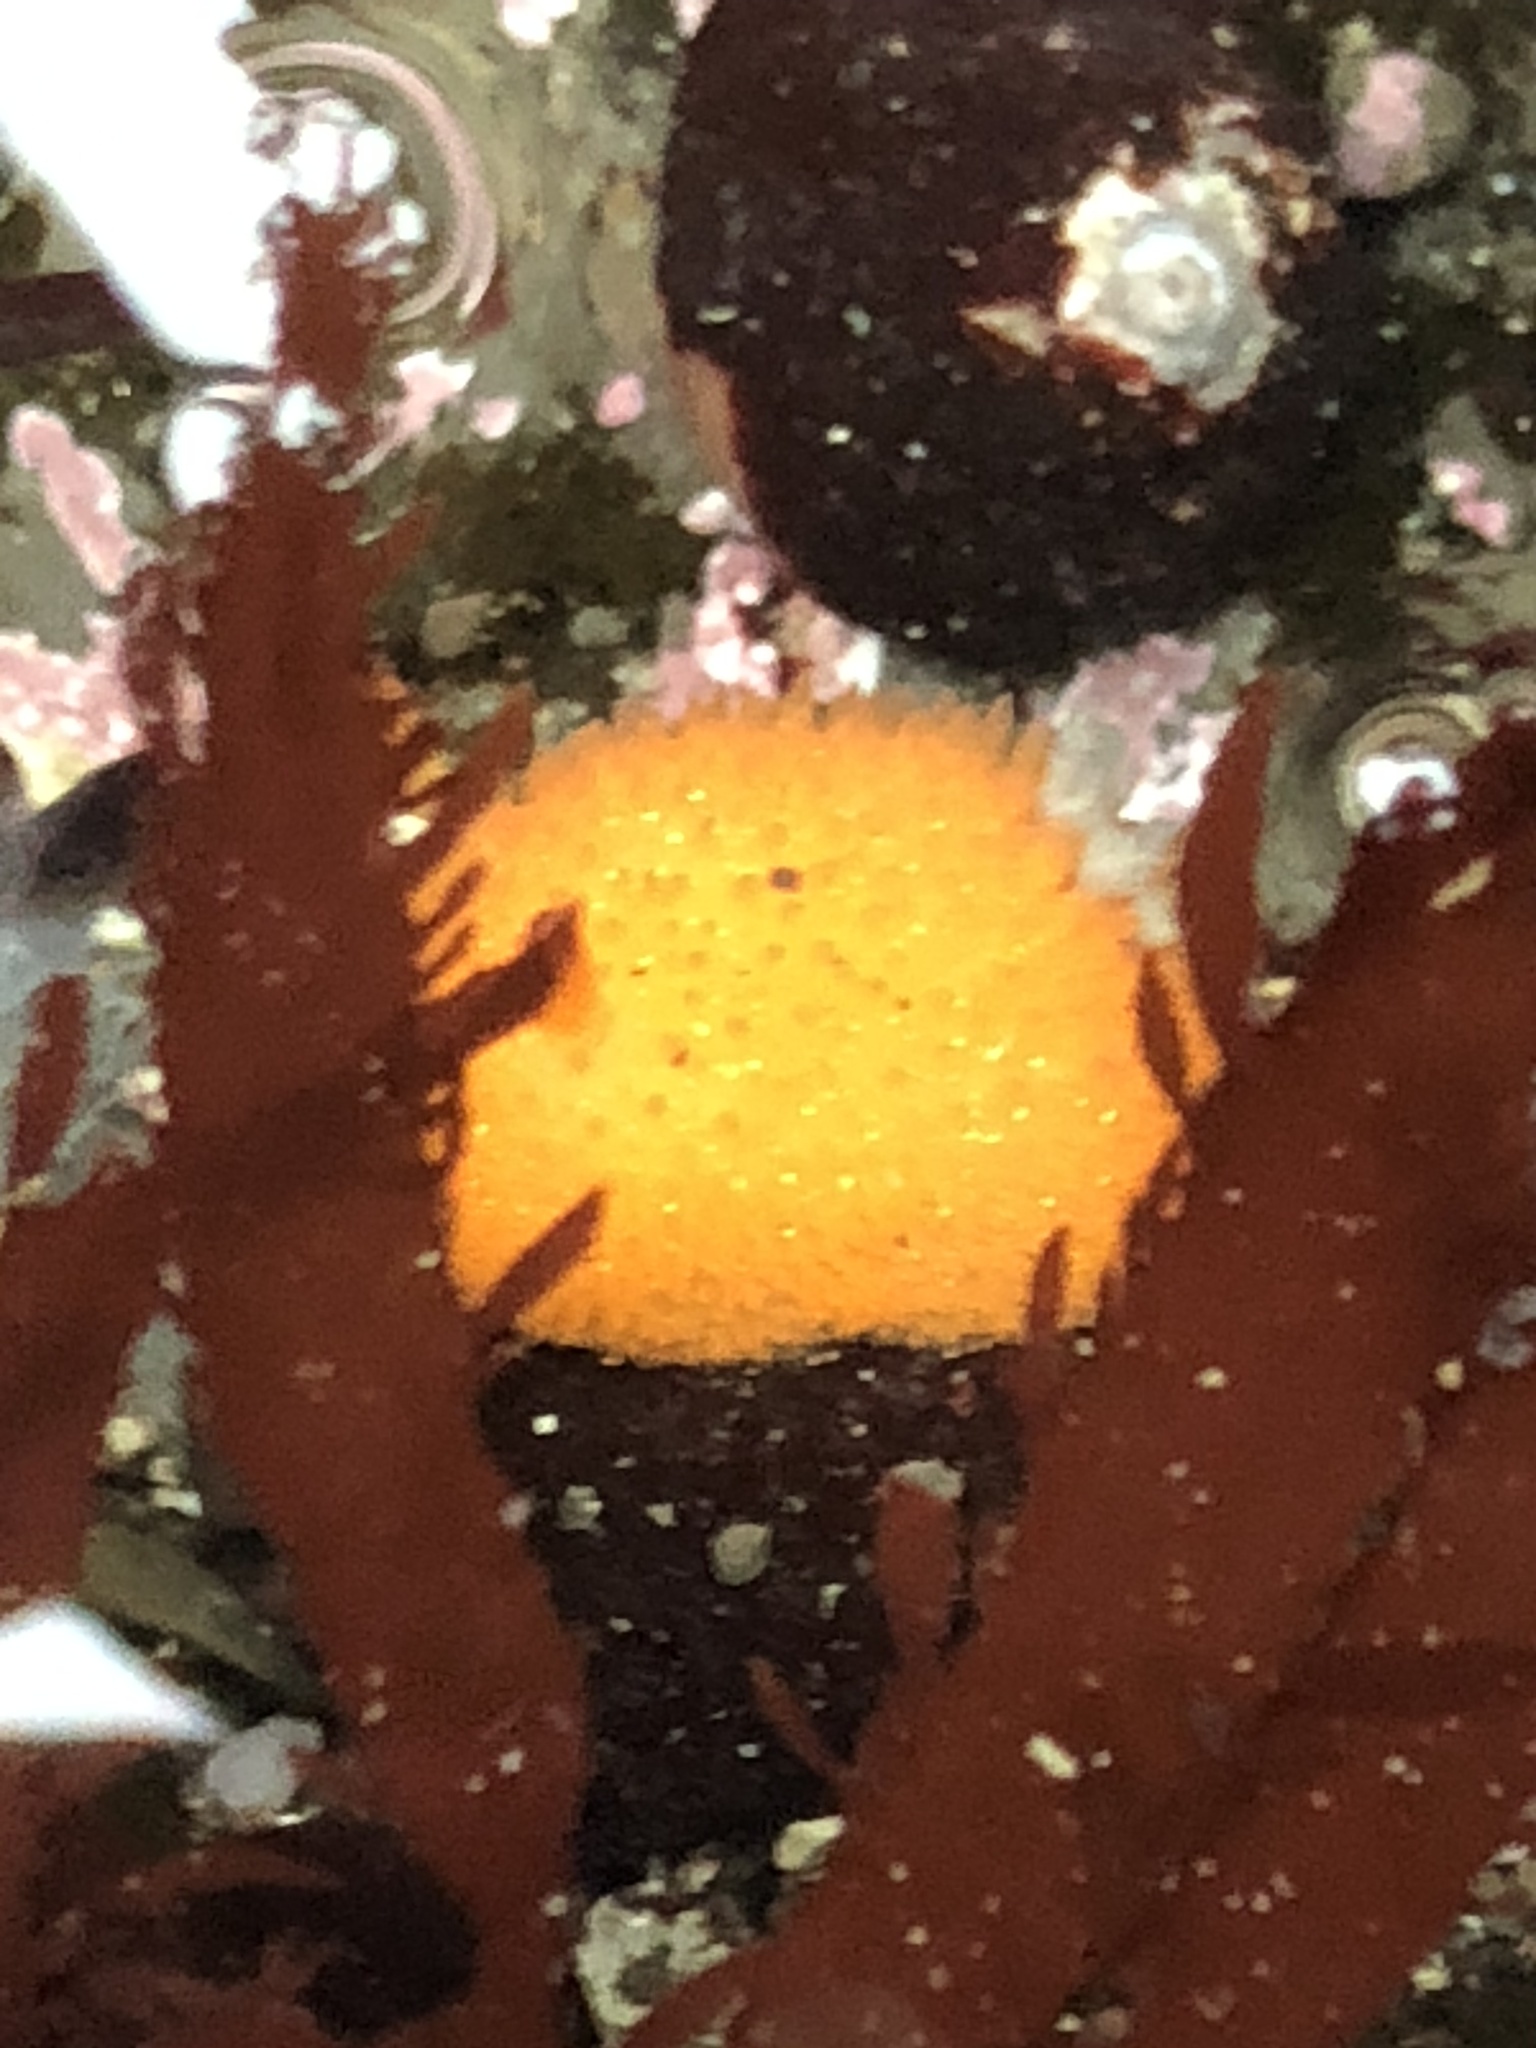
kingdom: Animalia
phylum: Mollusca
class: Gastropoda
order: Nudibranchia
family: Onchidorididae
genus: Acanthodoris
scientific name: Acanthodoris lutea
